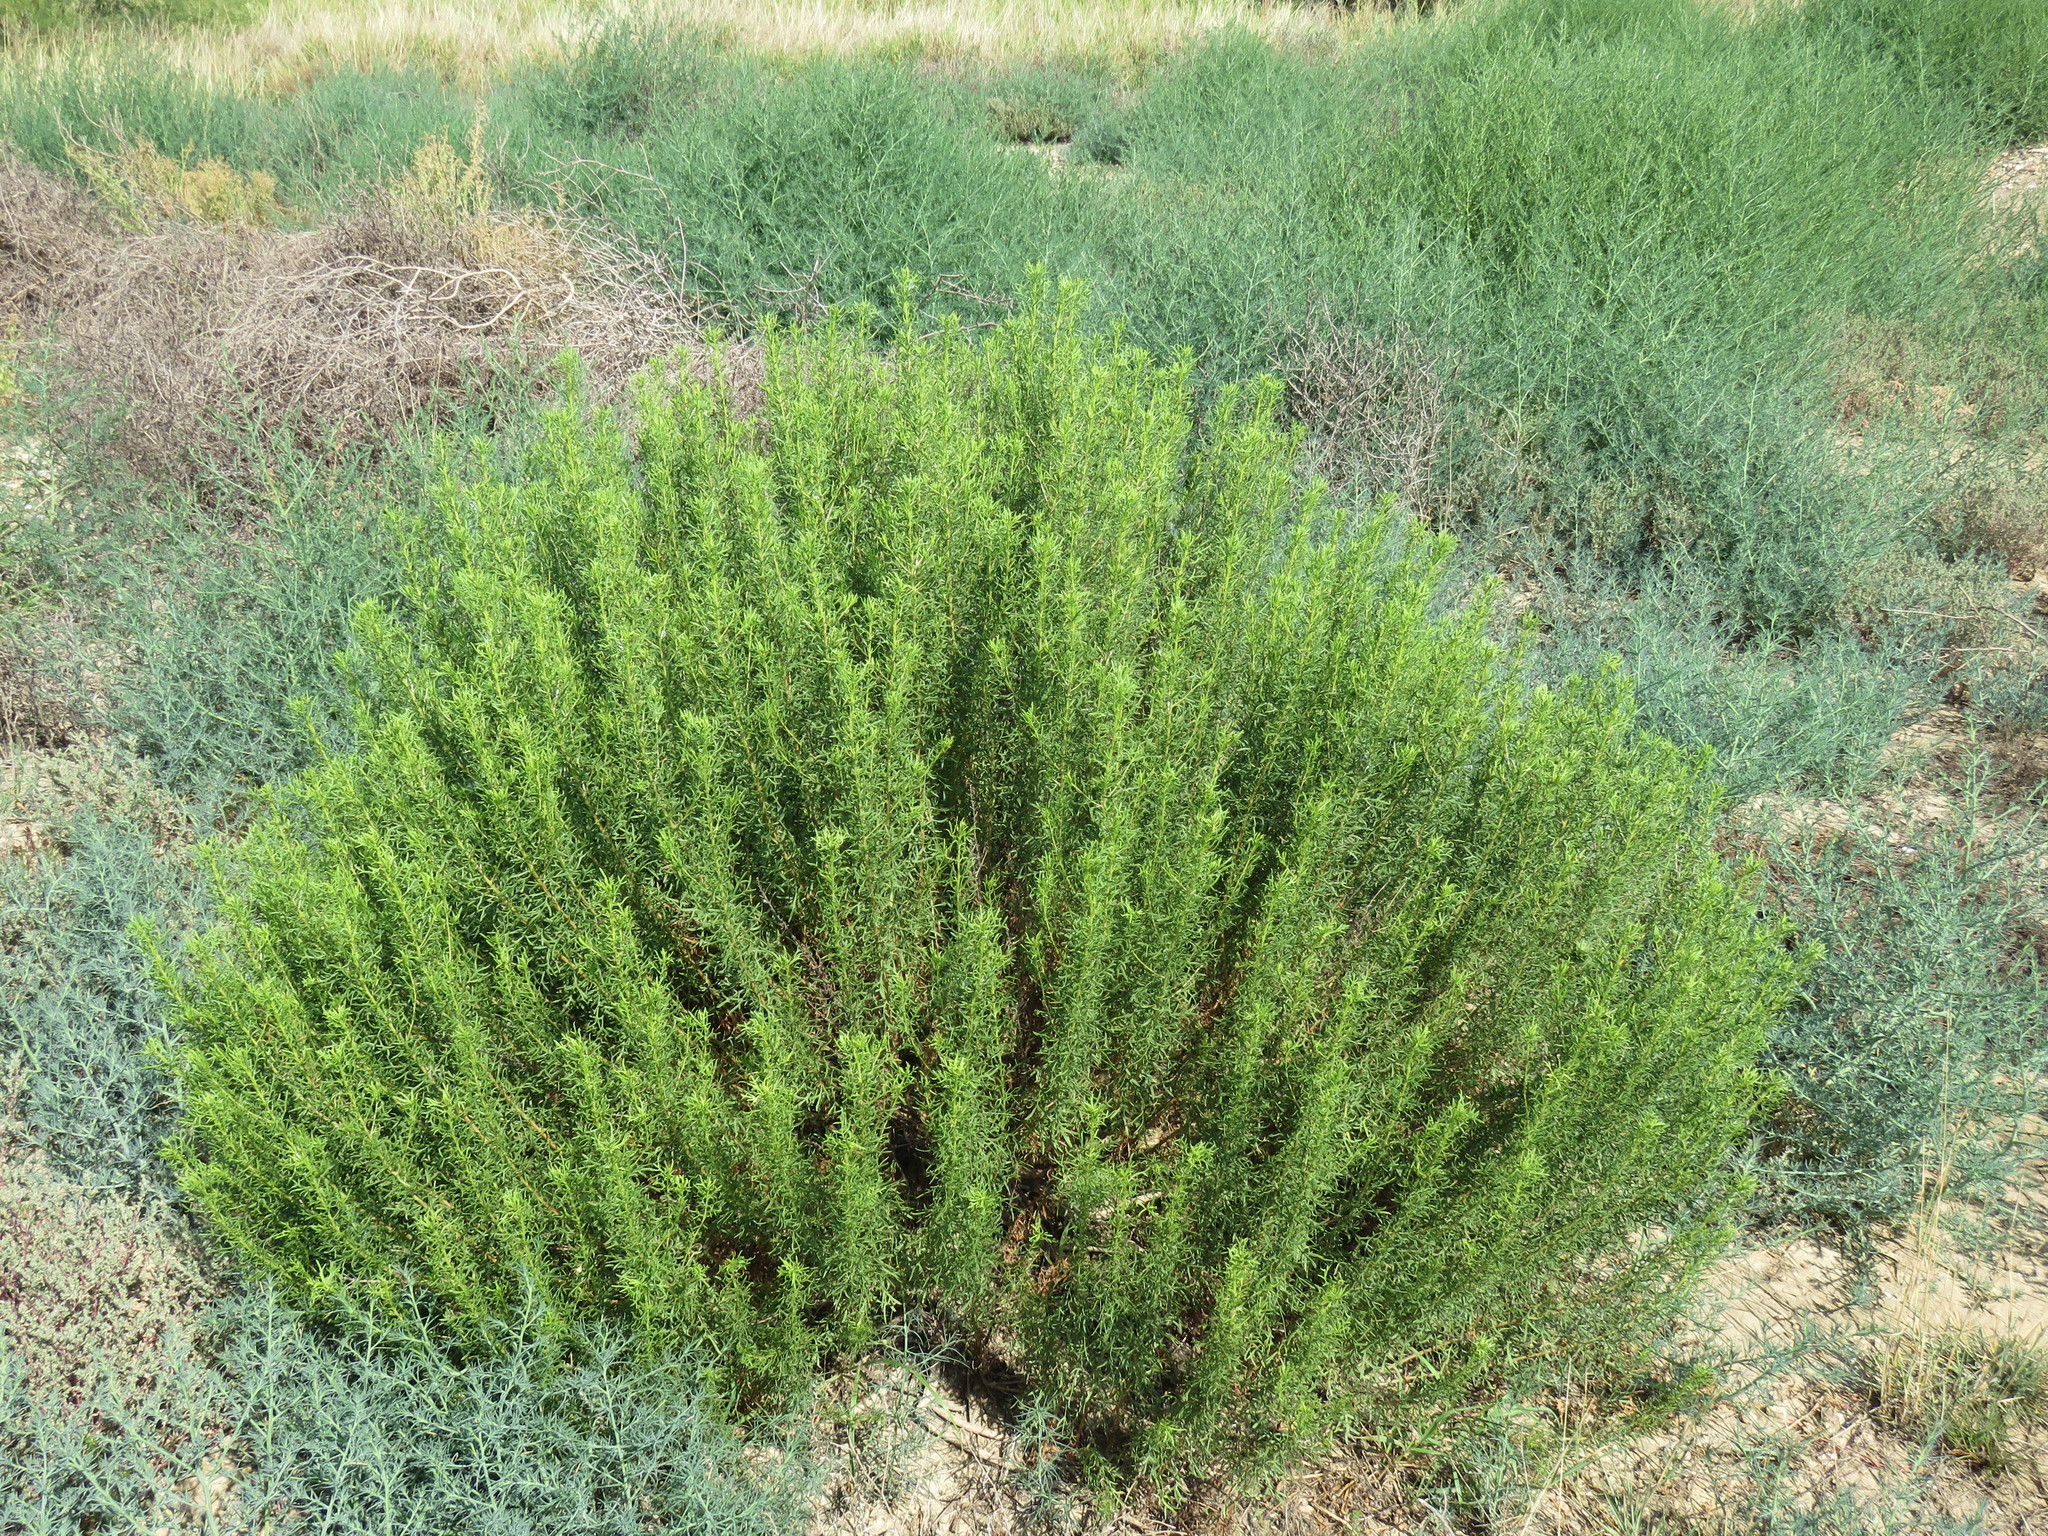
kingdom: Plantae
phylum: Tracheophyta
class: Magnoliopsida
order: Asterales
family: Asteraceae
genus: Isocoma
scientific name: Isocoma coronopifolia
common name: Common jimmyweed
